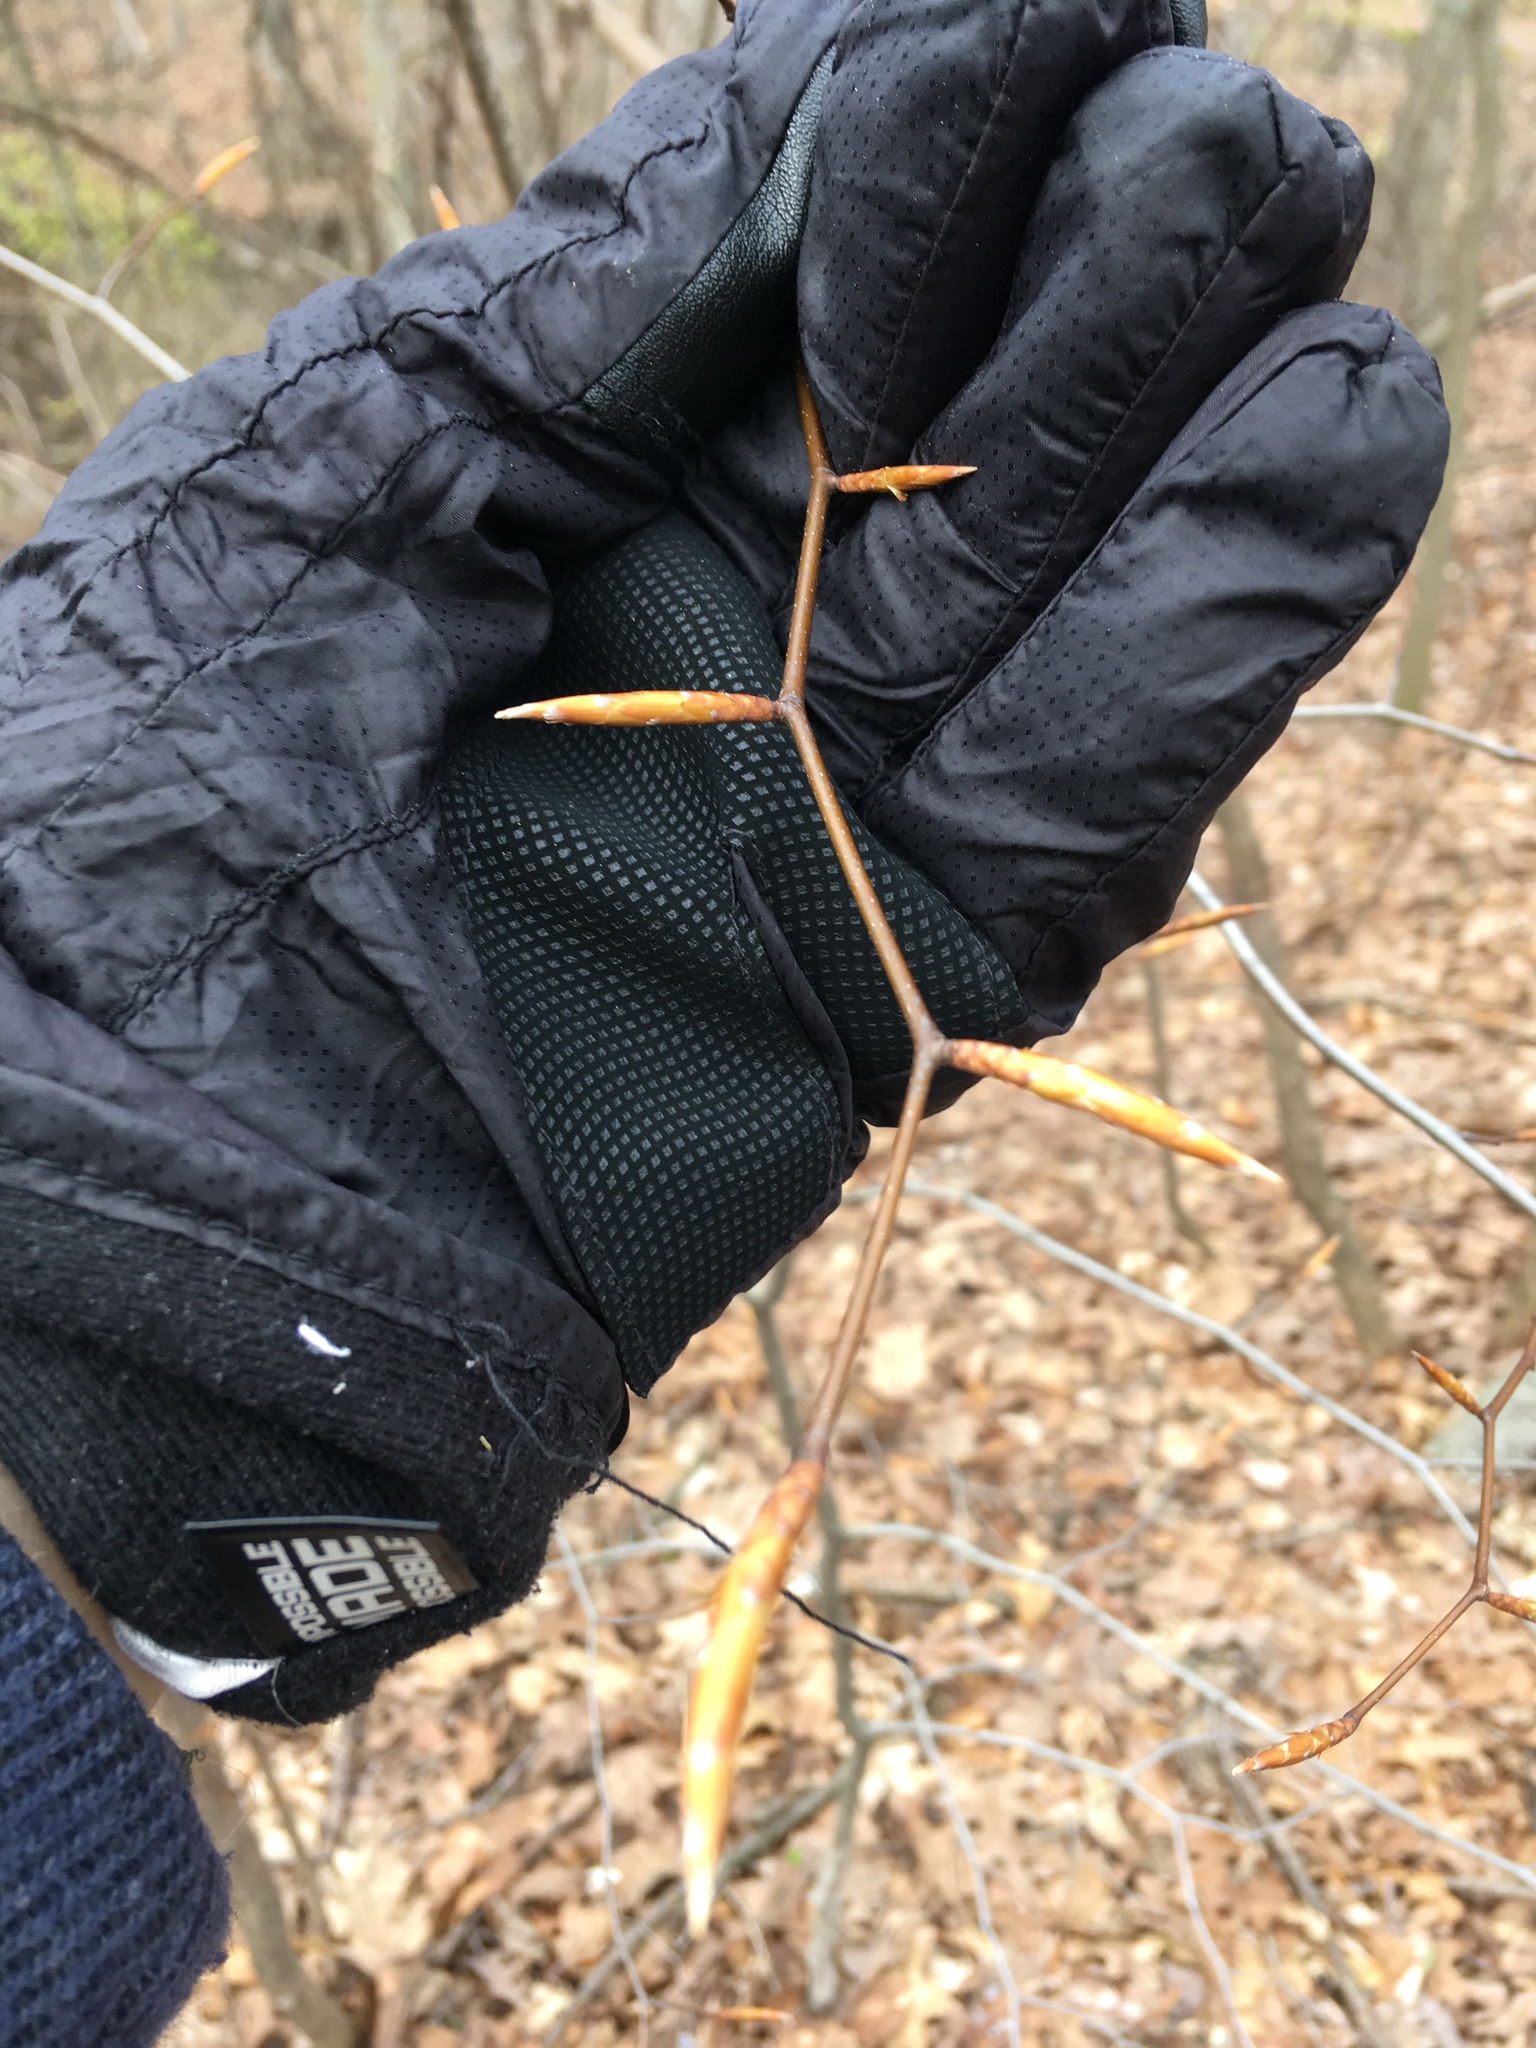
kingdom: Plantae
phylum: Tracheophyta
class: Magnoliopsida
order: Fagales
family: Fagaceae
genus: Fagus
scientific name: Fagus grandifolia
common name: American beech
